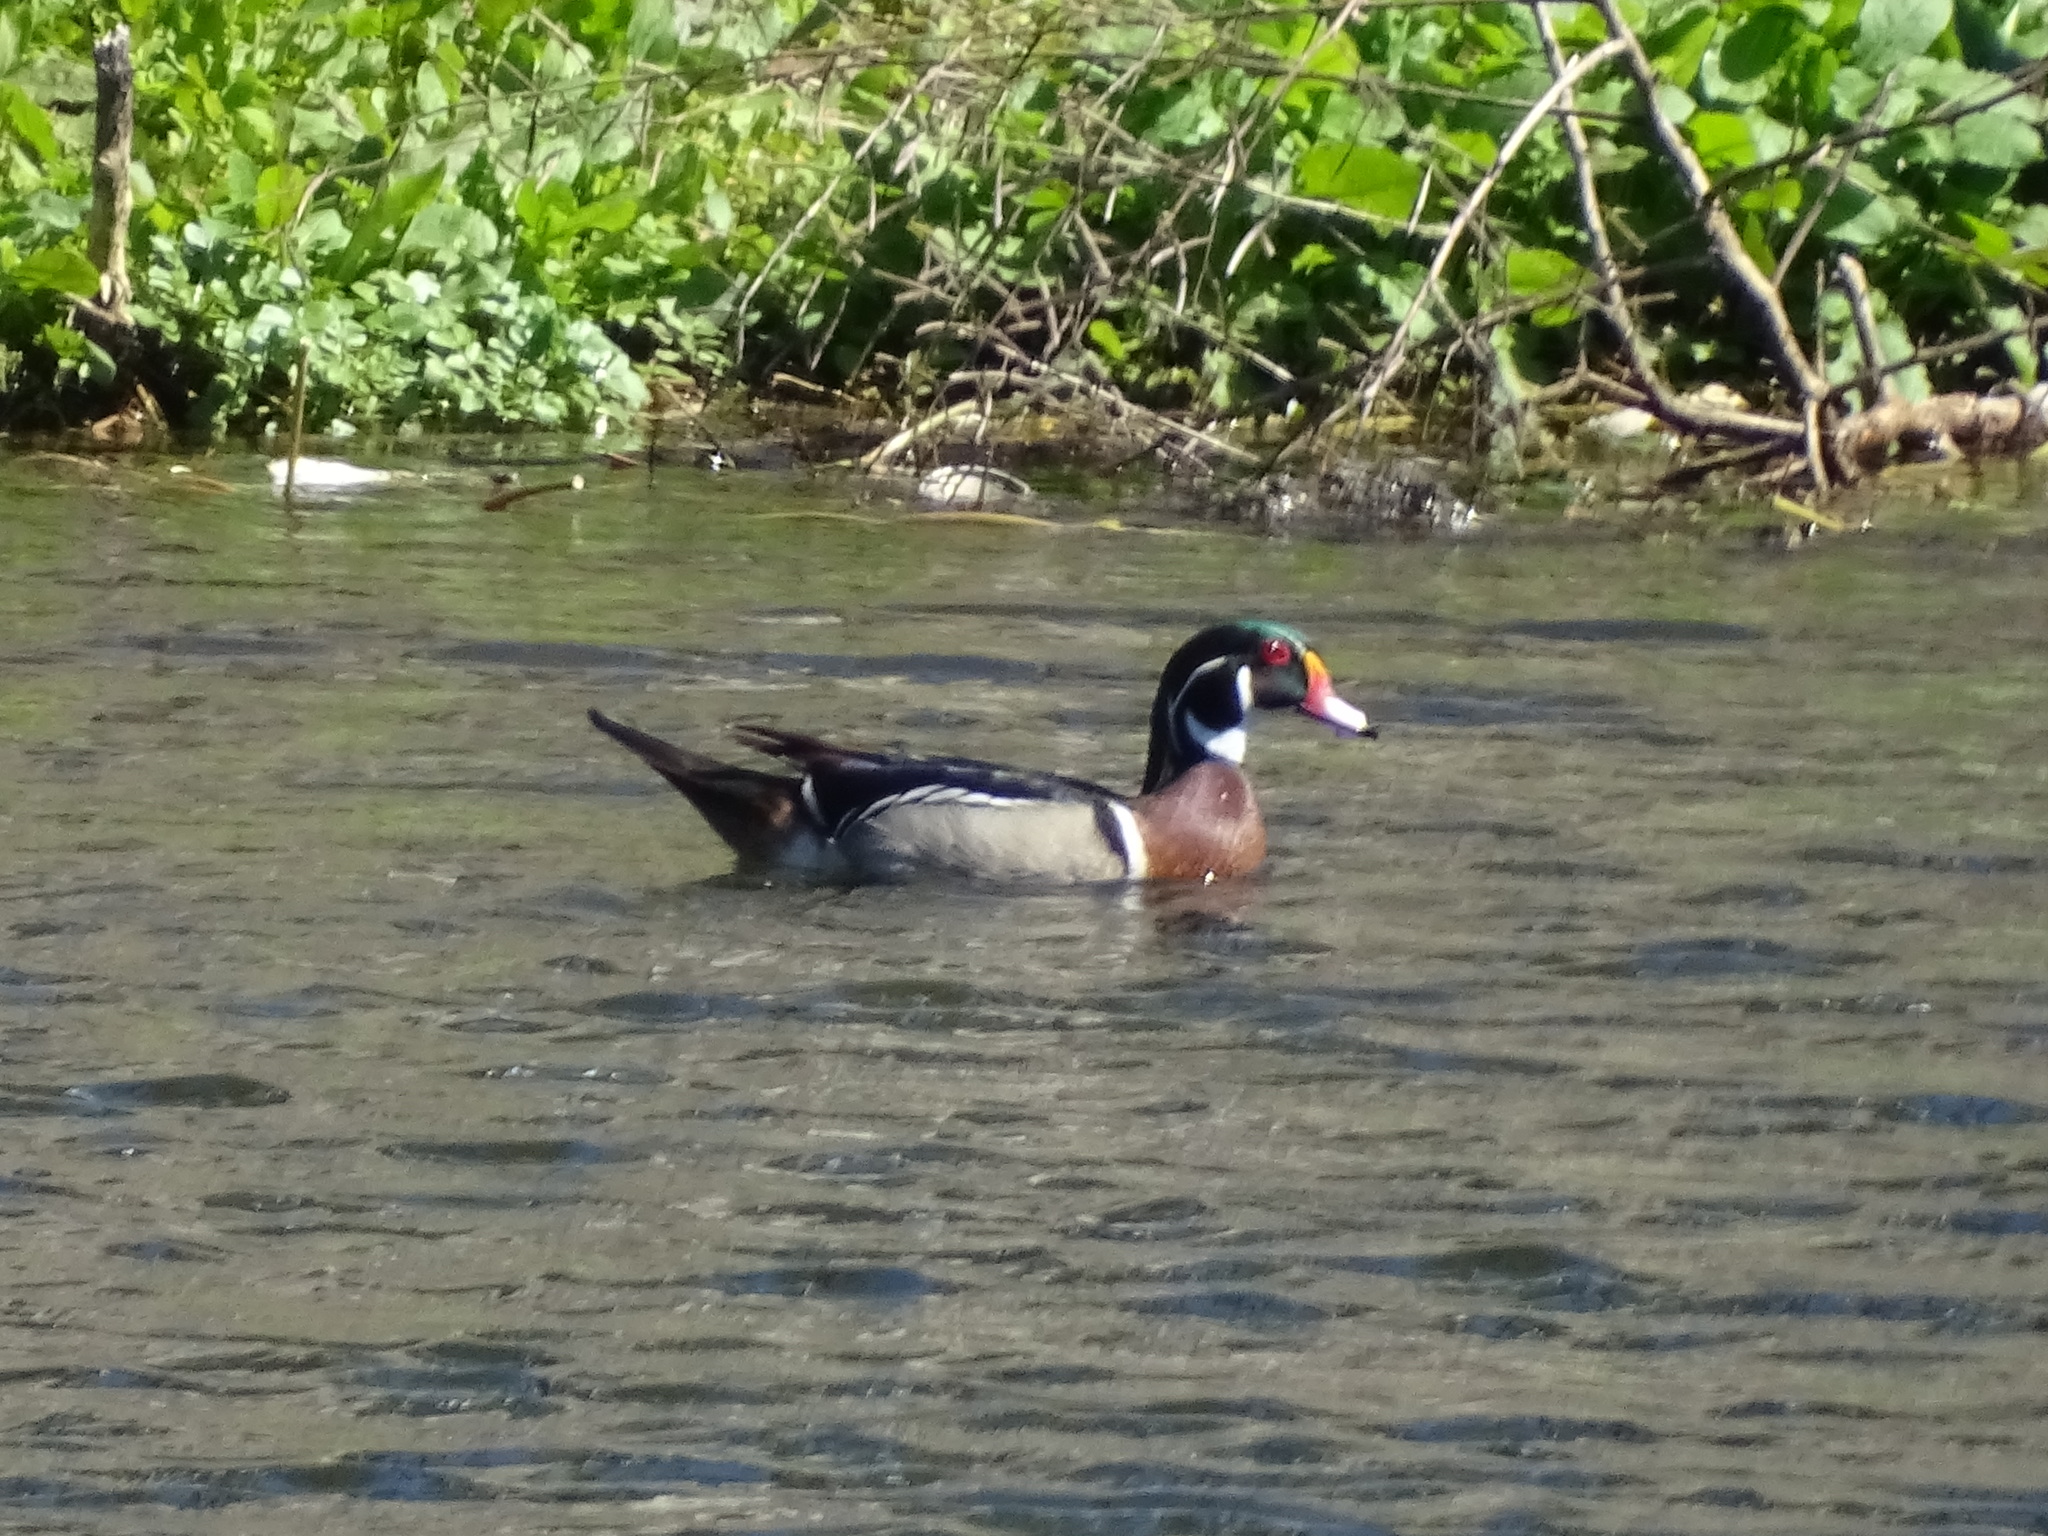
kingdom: Animalia
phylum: Chordata
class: Aves
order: Anseriformes
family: Anatidae
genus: Aix
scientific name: Aix sponsa
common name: Wood duck
